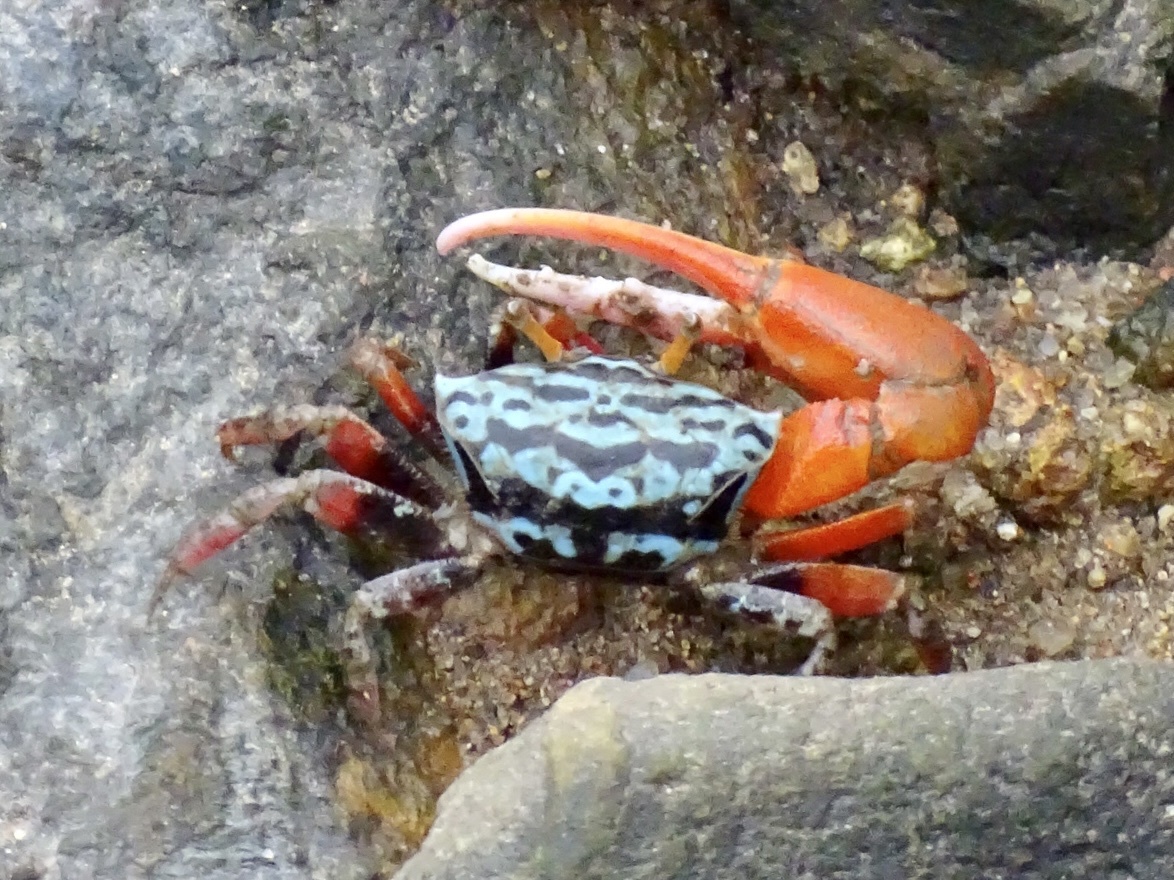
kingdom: Animalia
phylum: Arthropoda
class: Malacostraca
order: Decapoda
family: Ocypodidae
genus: Paraleptuca
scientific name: Paraleptuca splendida
